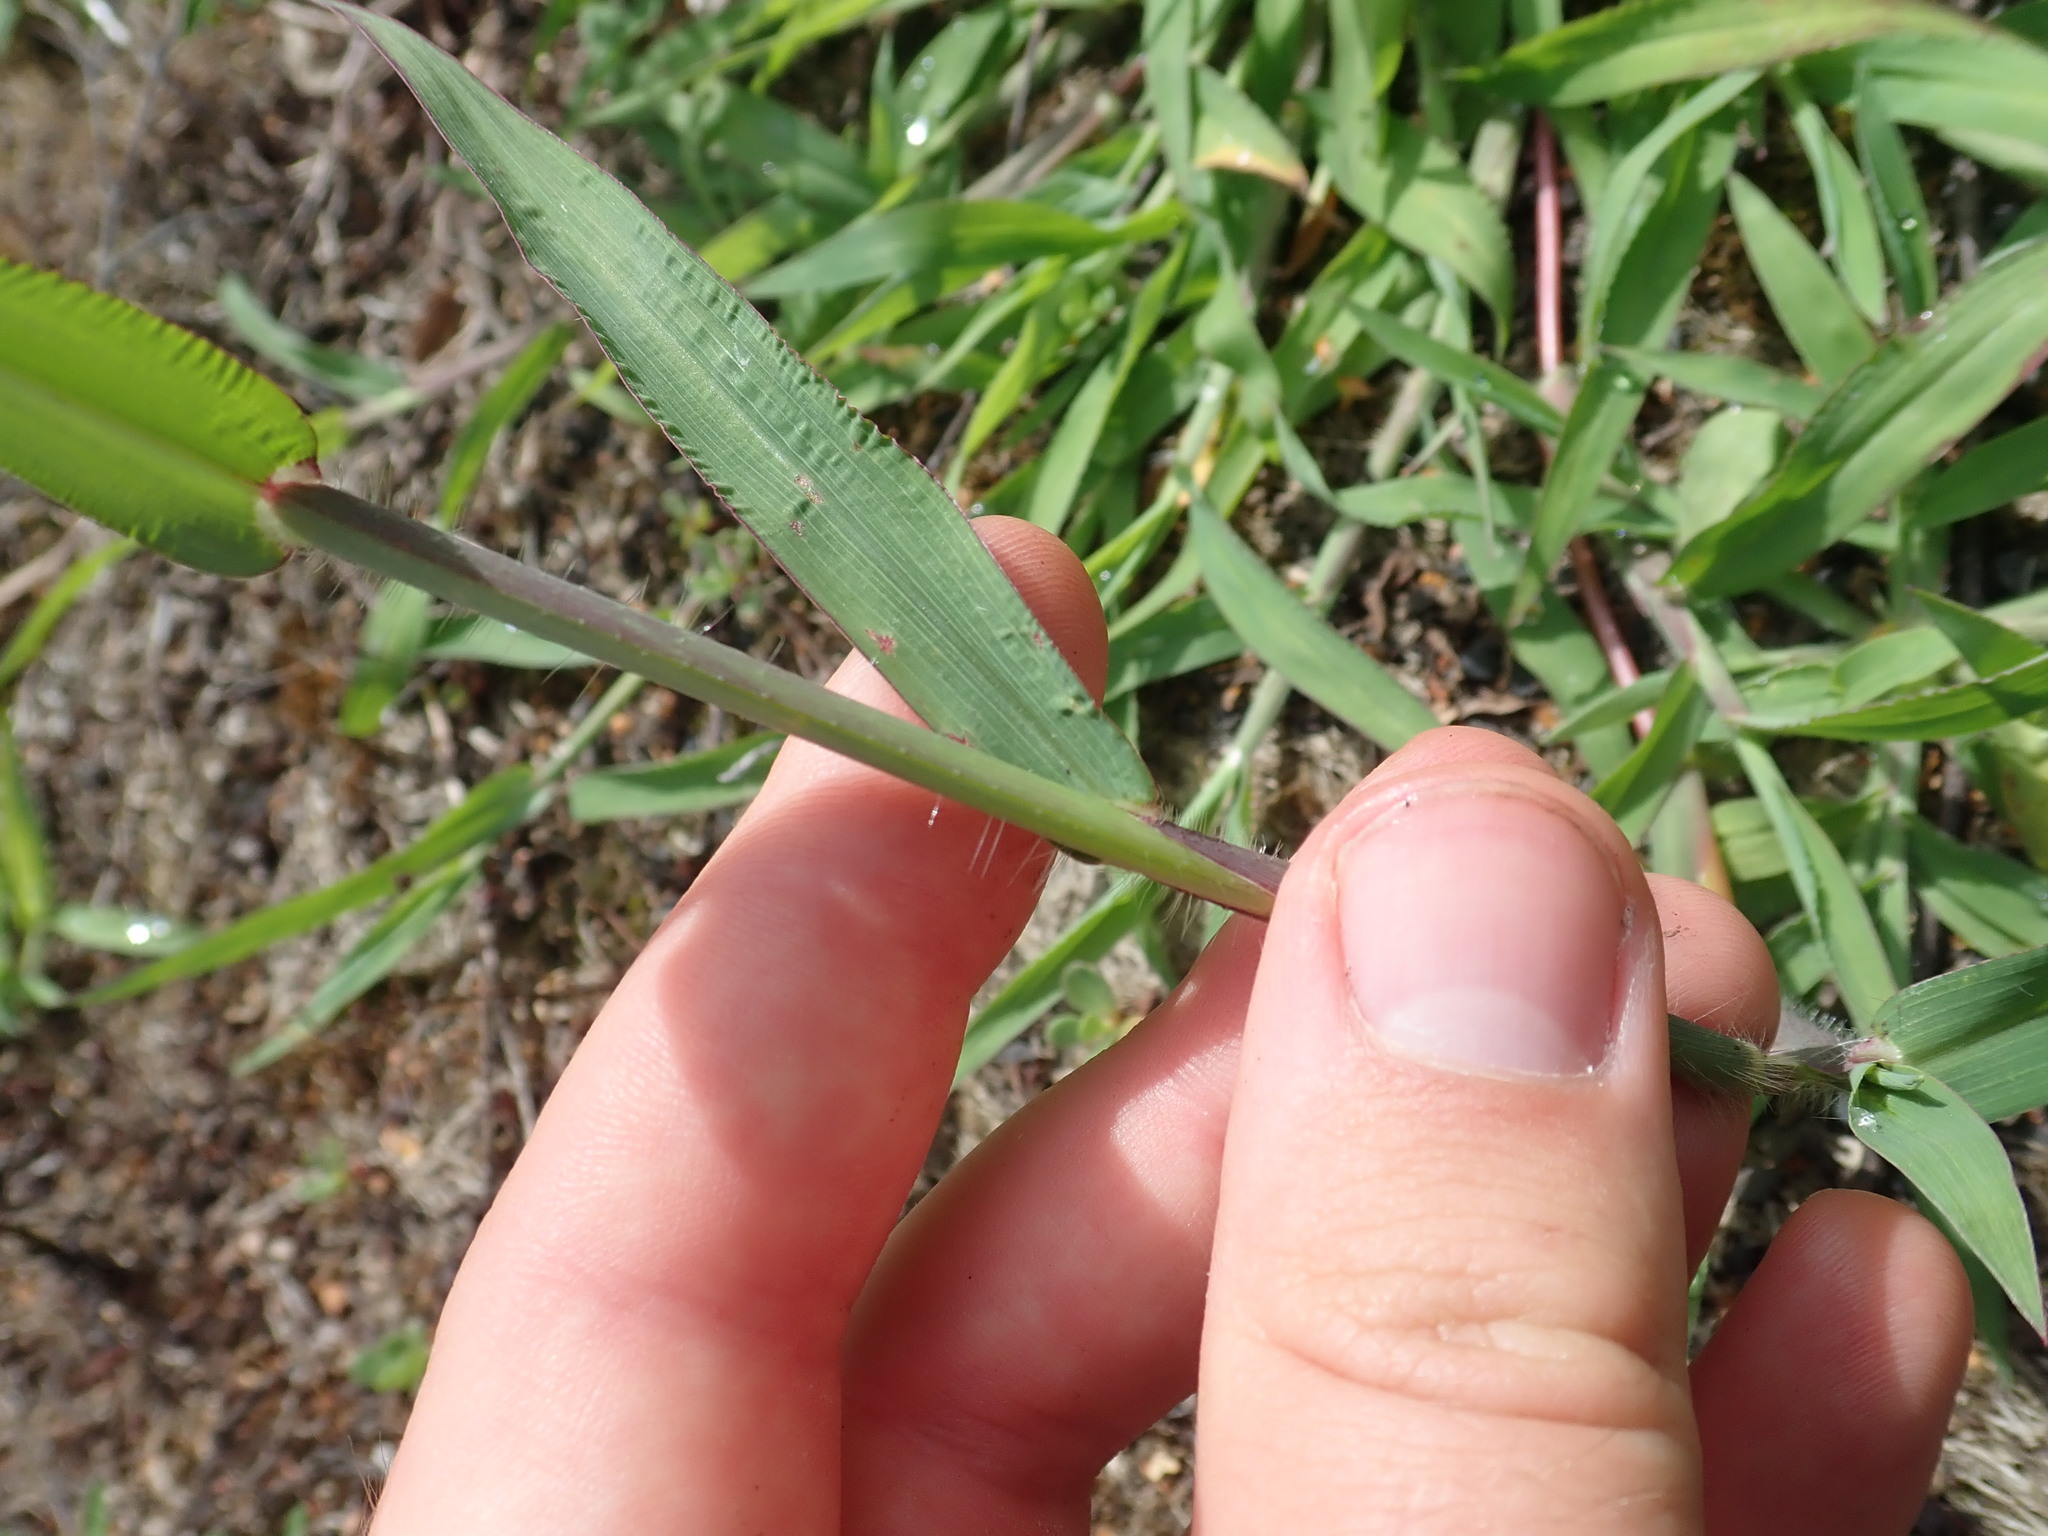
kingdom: Plantae
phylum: Tracheophyta
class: Liliopsida
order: Poales
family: Poaceae
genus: Digitaria
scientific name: Digitaria sanguinalis
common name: Hairy crabgrass
